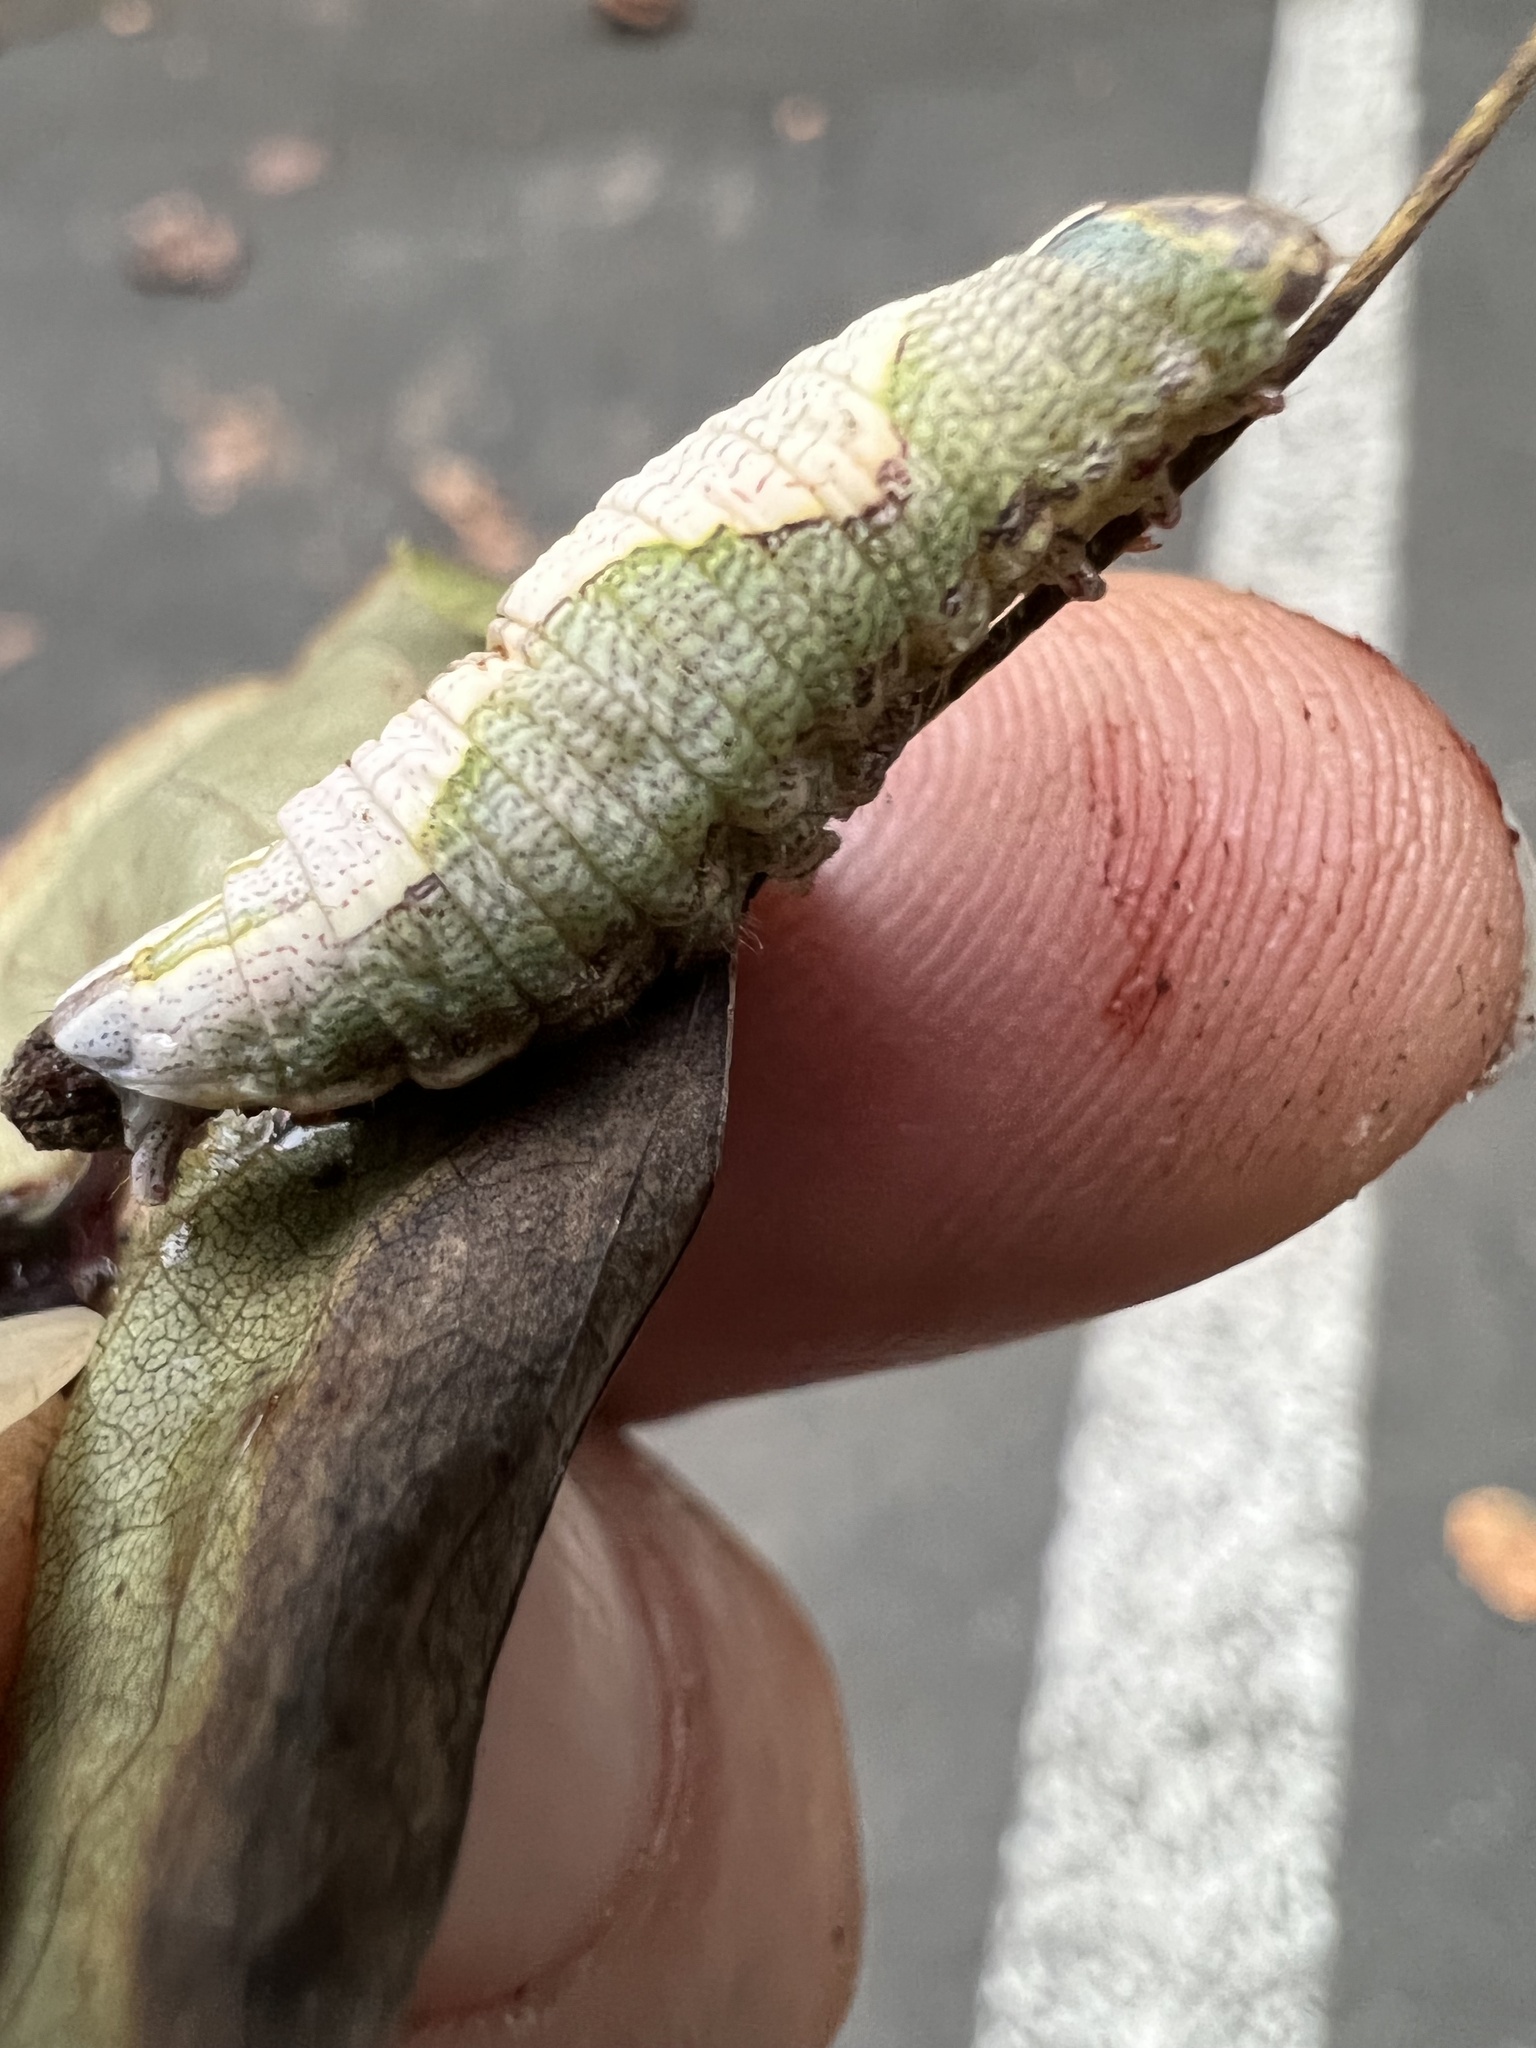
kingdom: Animalia
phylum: Arthropoda
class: Insecta
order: Lepidoptera
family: Notodontidae
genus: Heterocampa
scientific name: Heterocampa obliqua
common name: Oblique heterocampa
